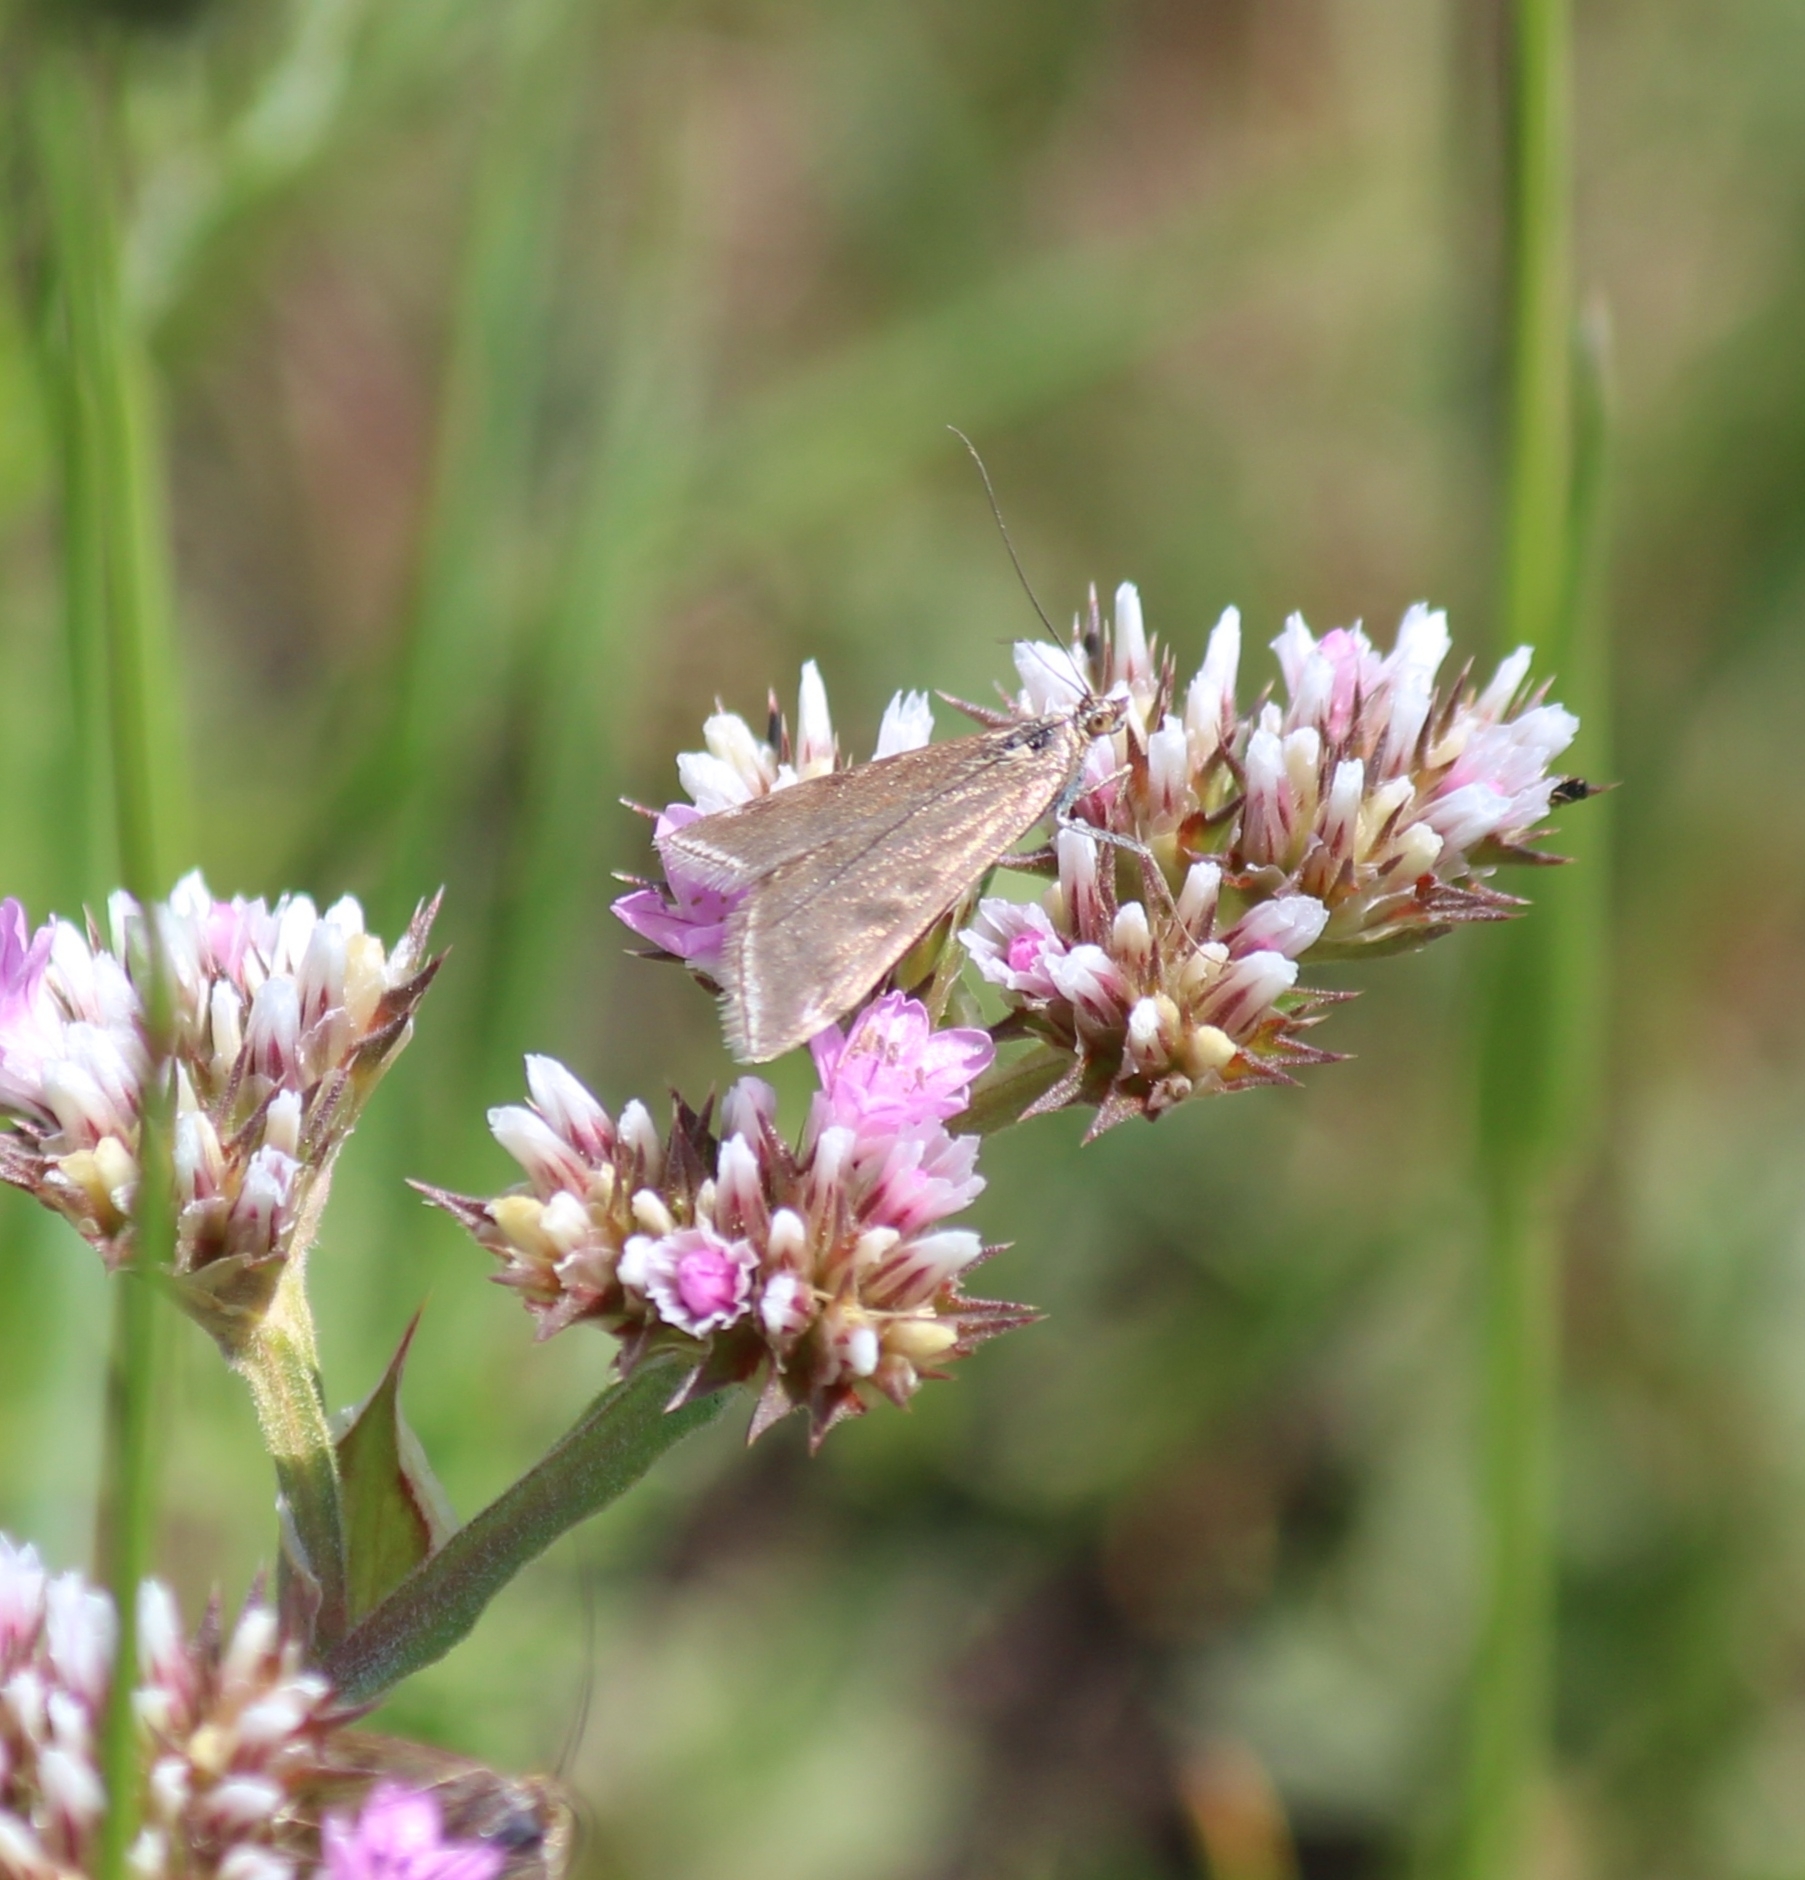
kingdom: Animalia
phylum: Arthropoda
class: Insecta
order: Lepidoptera
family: Crambidae
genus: Loxostege
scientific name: Loxostege sticticalis
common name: Crambid moth
